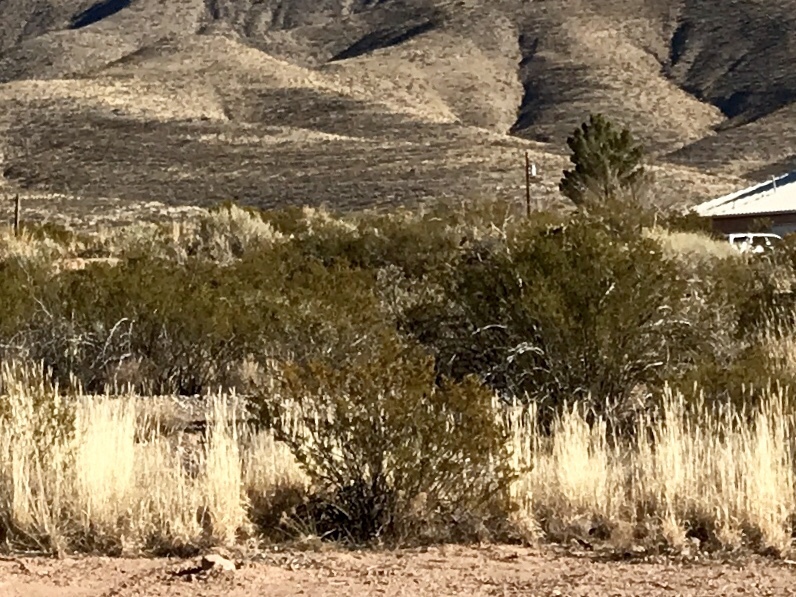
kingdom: Plantae
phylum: Tracheophyta
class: Magnoliopsida
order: Zygophyllales
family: Zygophyllaceae
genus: Larrea
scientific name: Larrea tridentata
